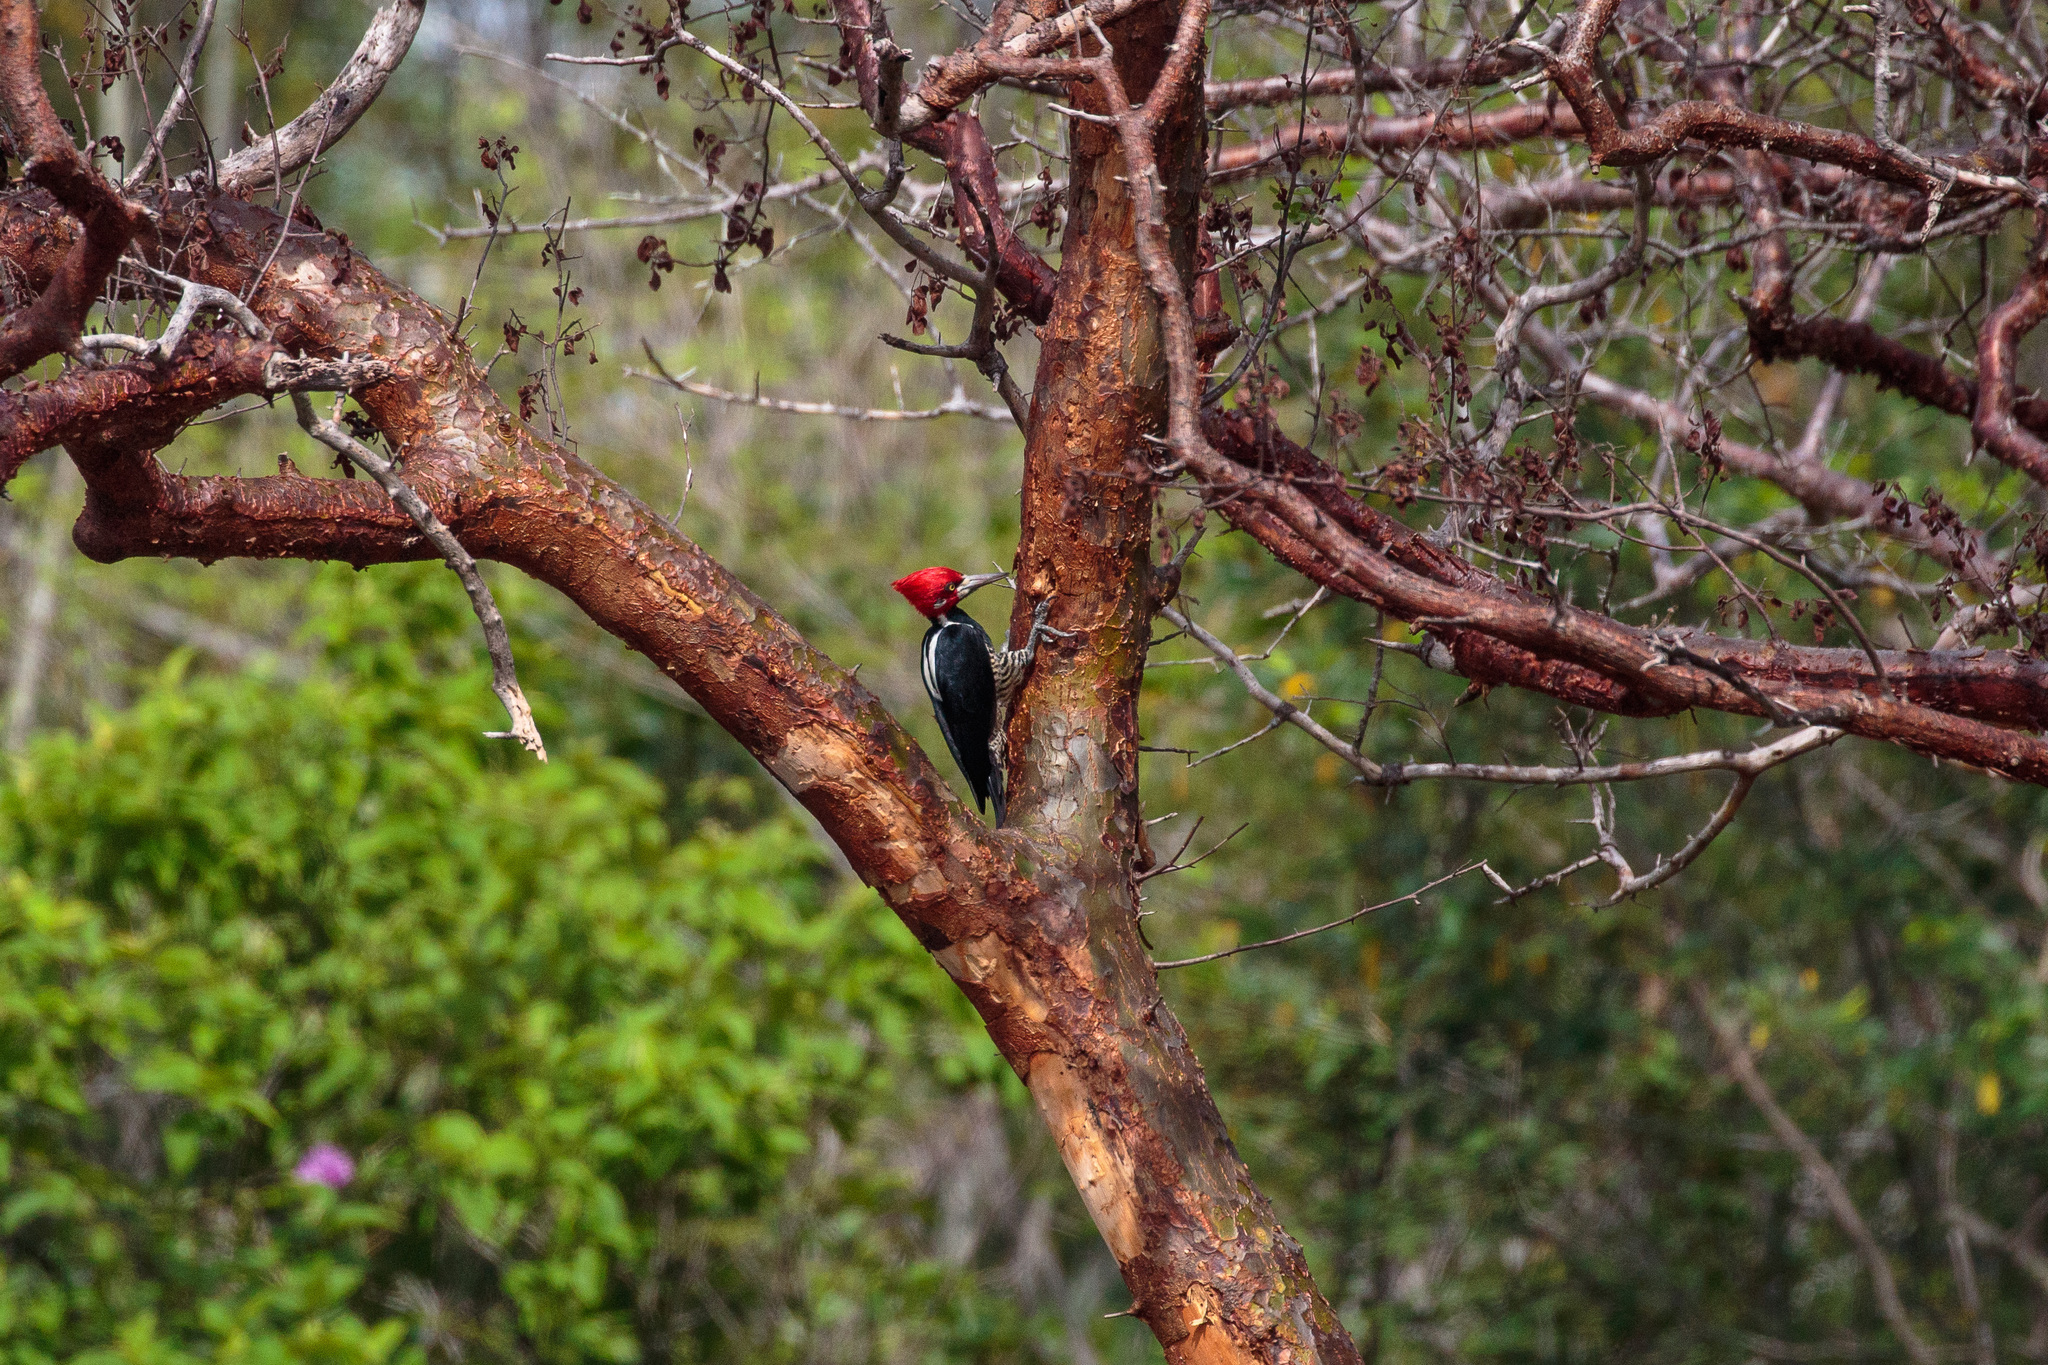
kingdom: Animalia
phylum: Chordata
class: Aves
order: Piciformes
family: Picidae
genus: Campephilus
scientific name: Campephilus melanoleucos
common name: Crimson-crested woodpecker
